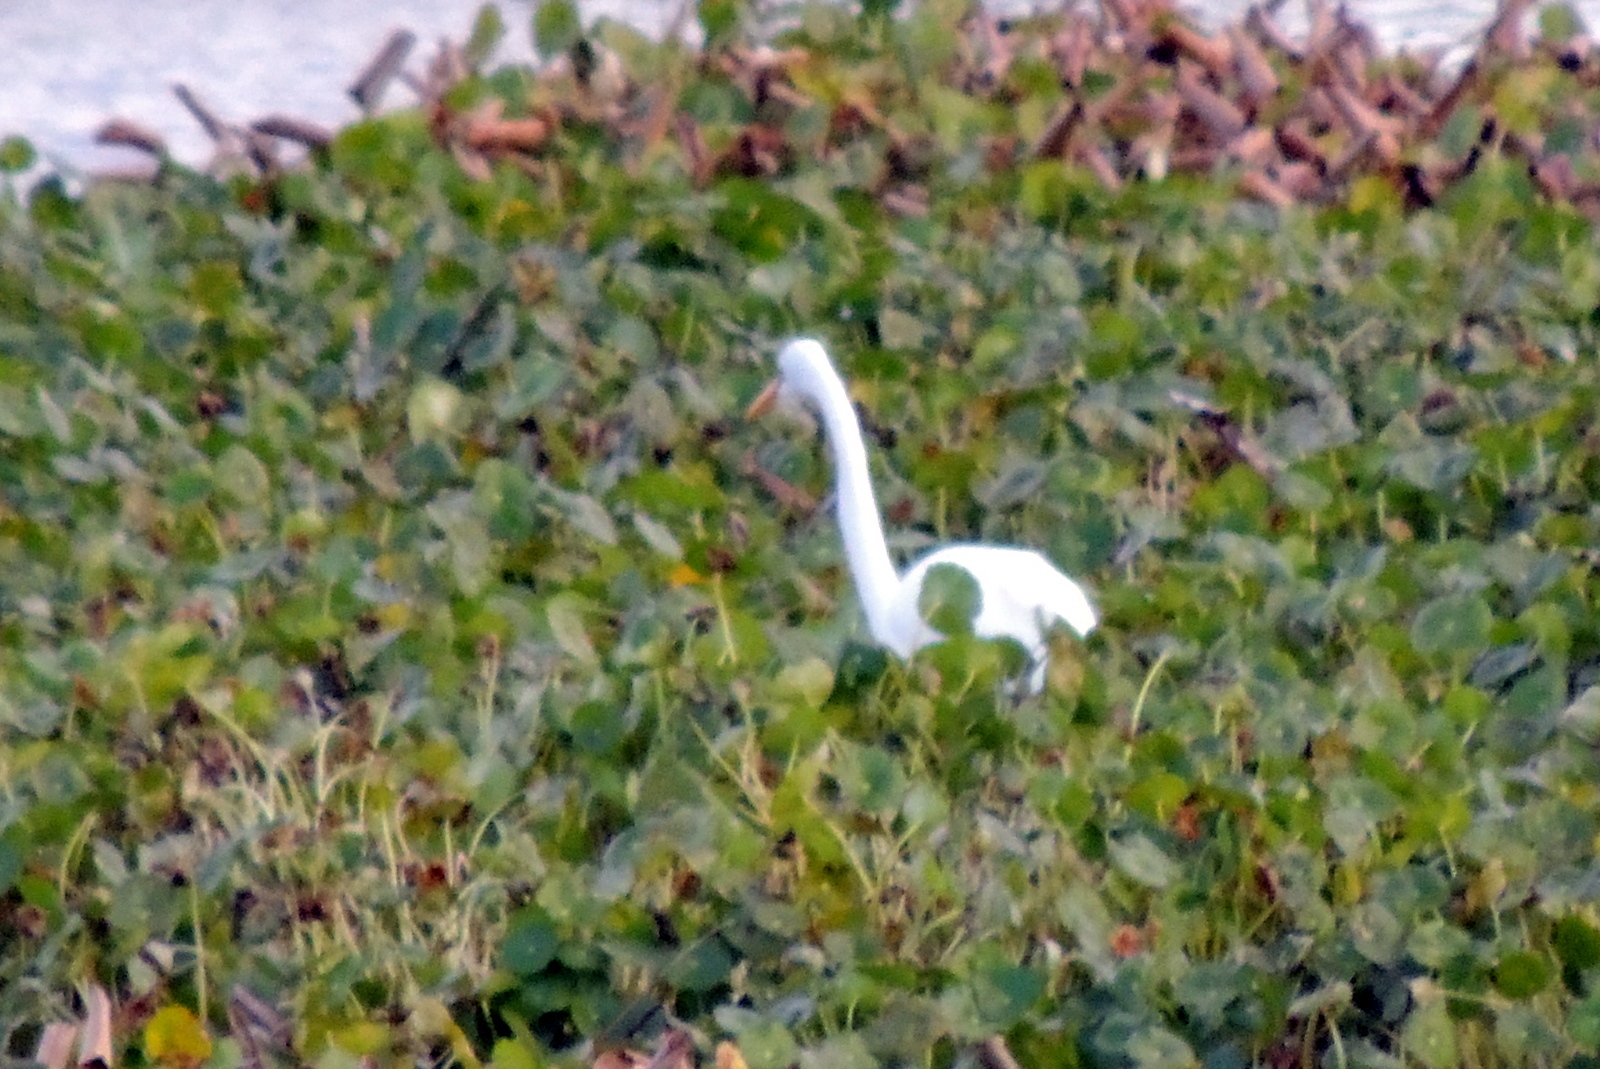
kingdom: Animalia
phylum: Chordata
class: Aves
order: Pelecaniformes
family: Ardeidae
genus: Ardea
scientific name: Ardea alba
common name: Great egret
